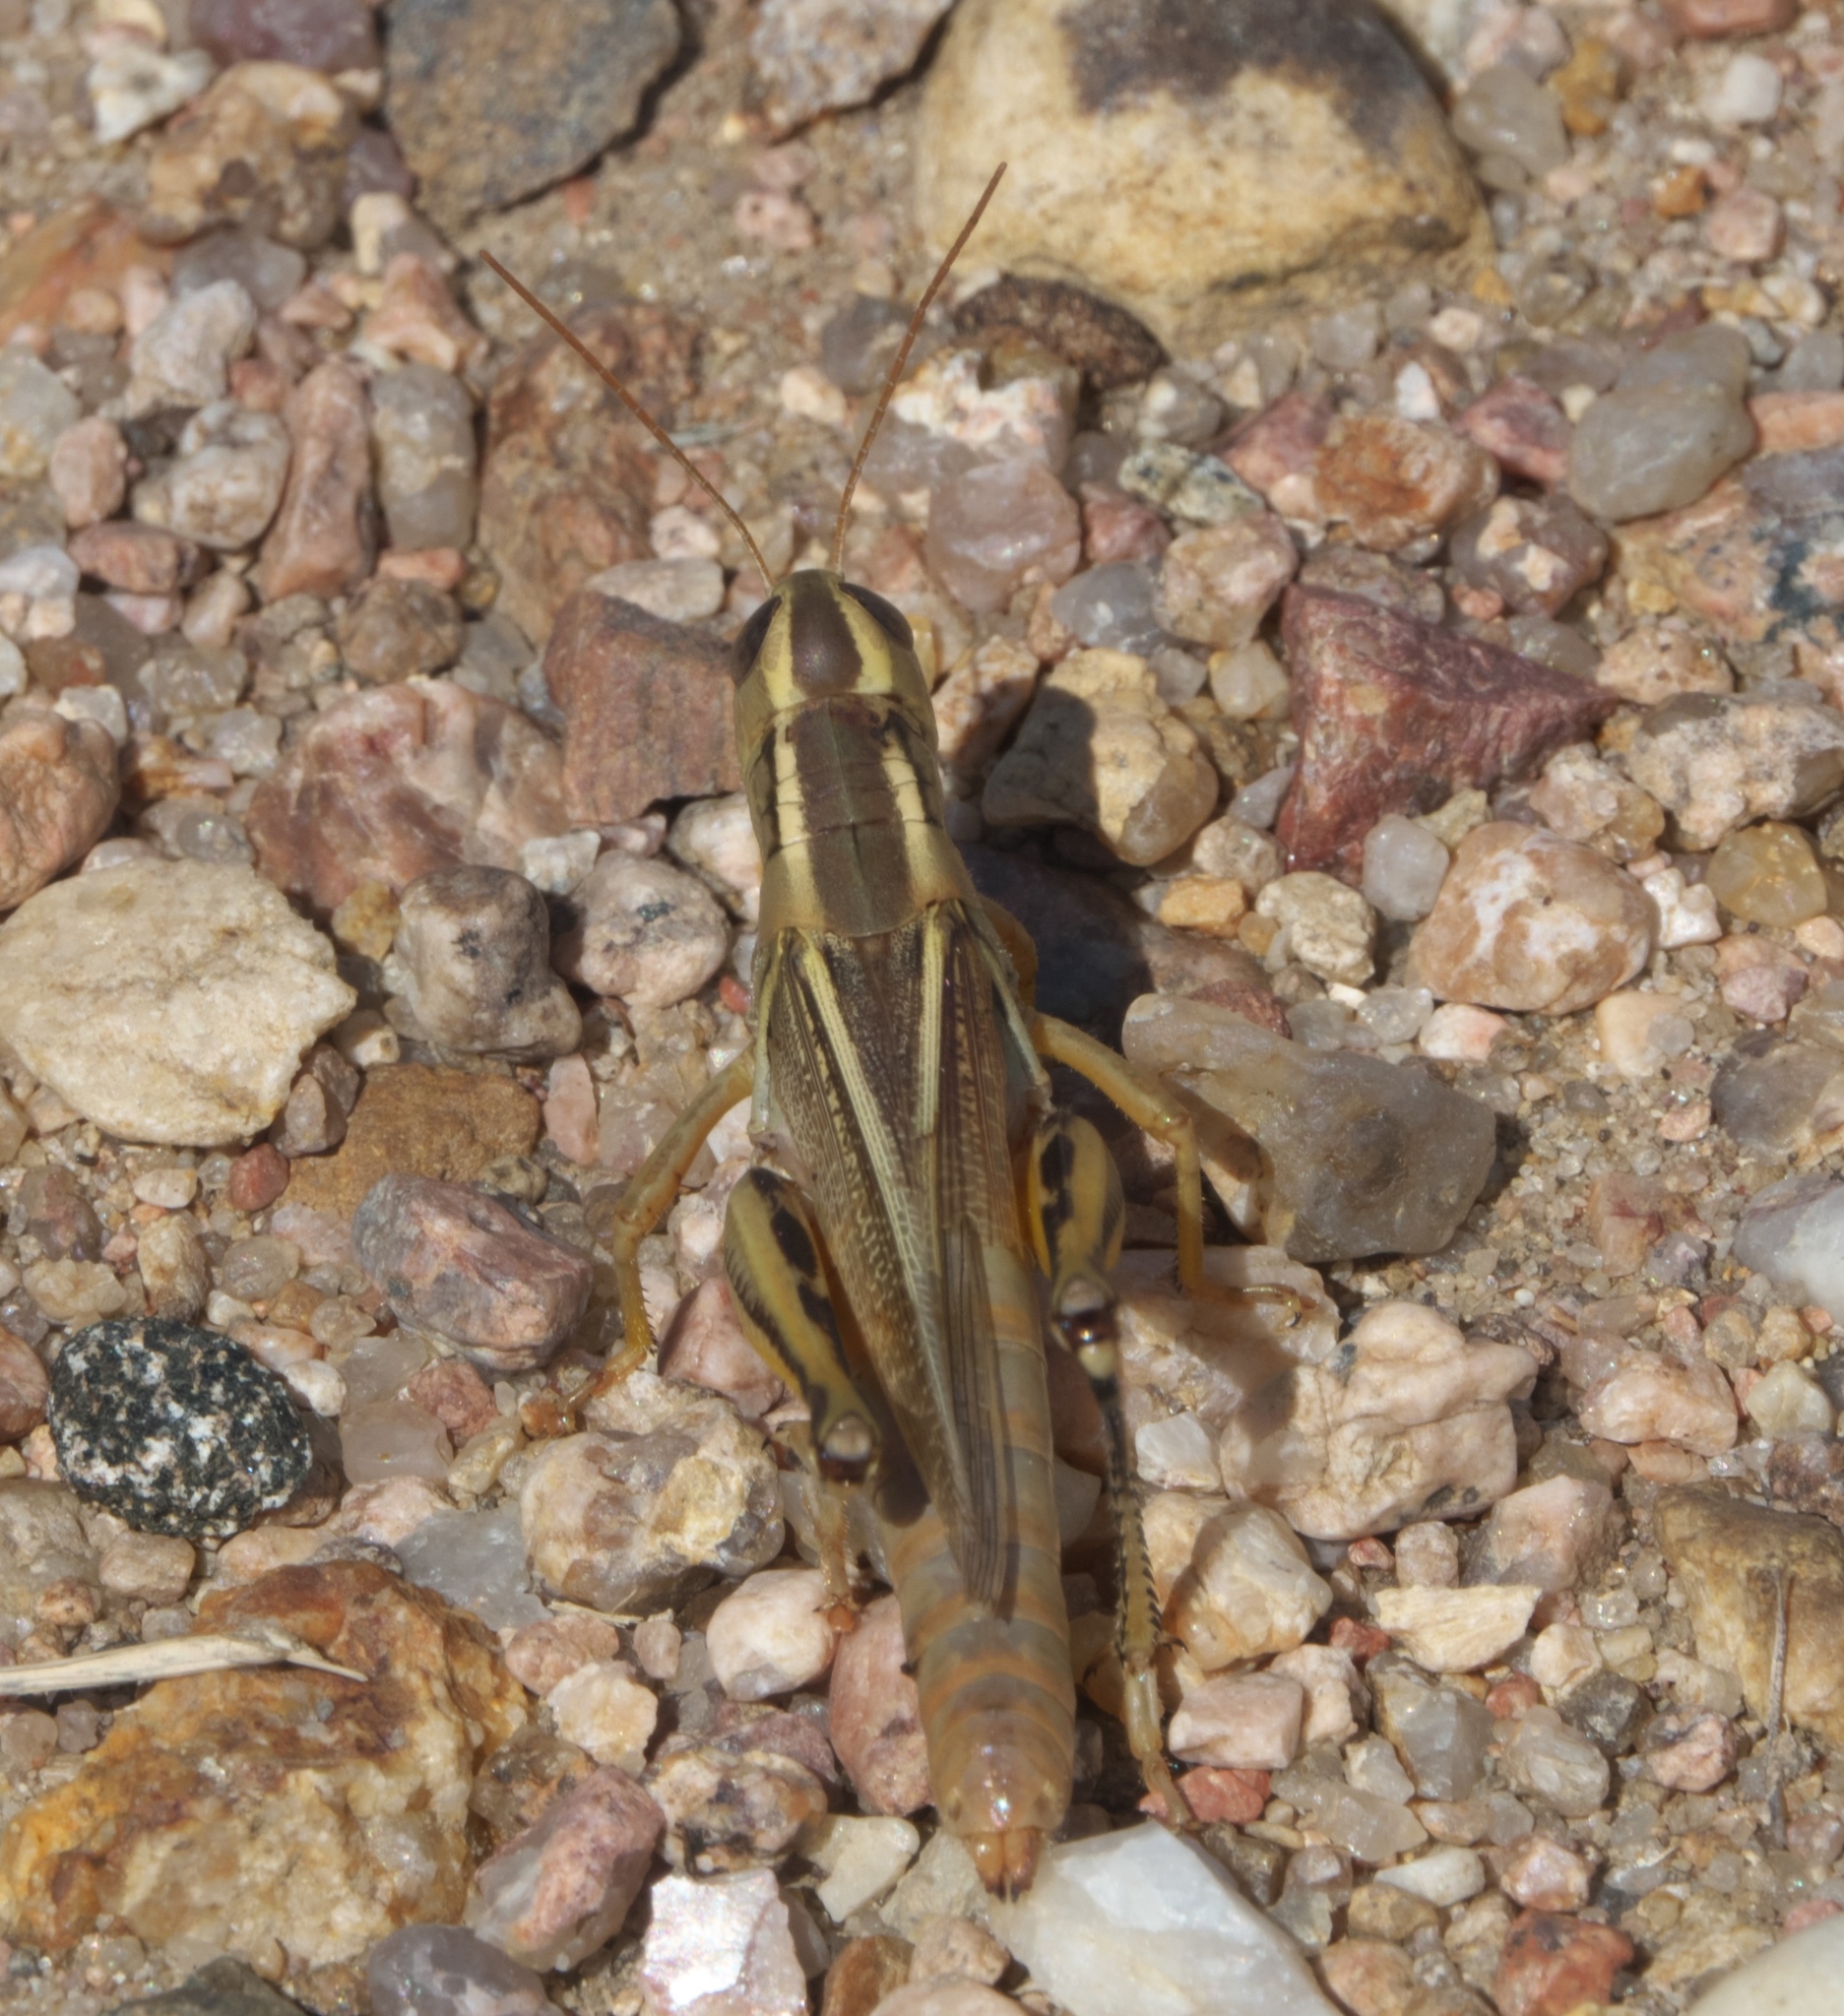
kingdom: Animalia
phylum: Arthropoda
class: Insecta
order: Orthoptera
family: Acrididae
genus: Melanoplus
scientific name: Melanoplus bivittatus
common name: Two-striped grasshopper
